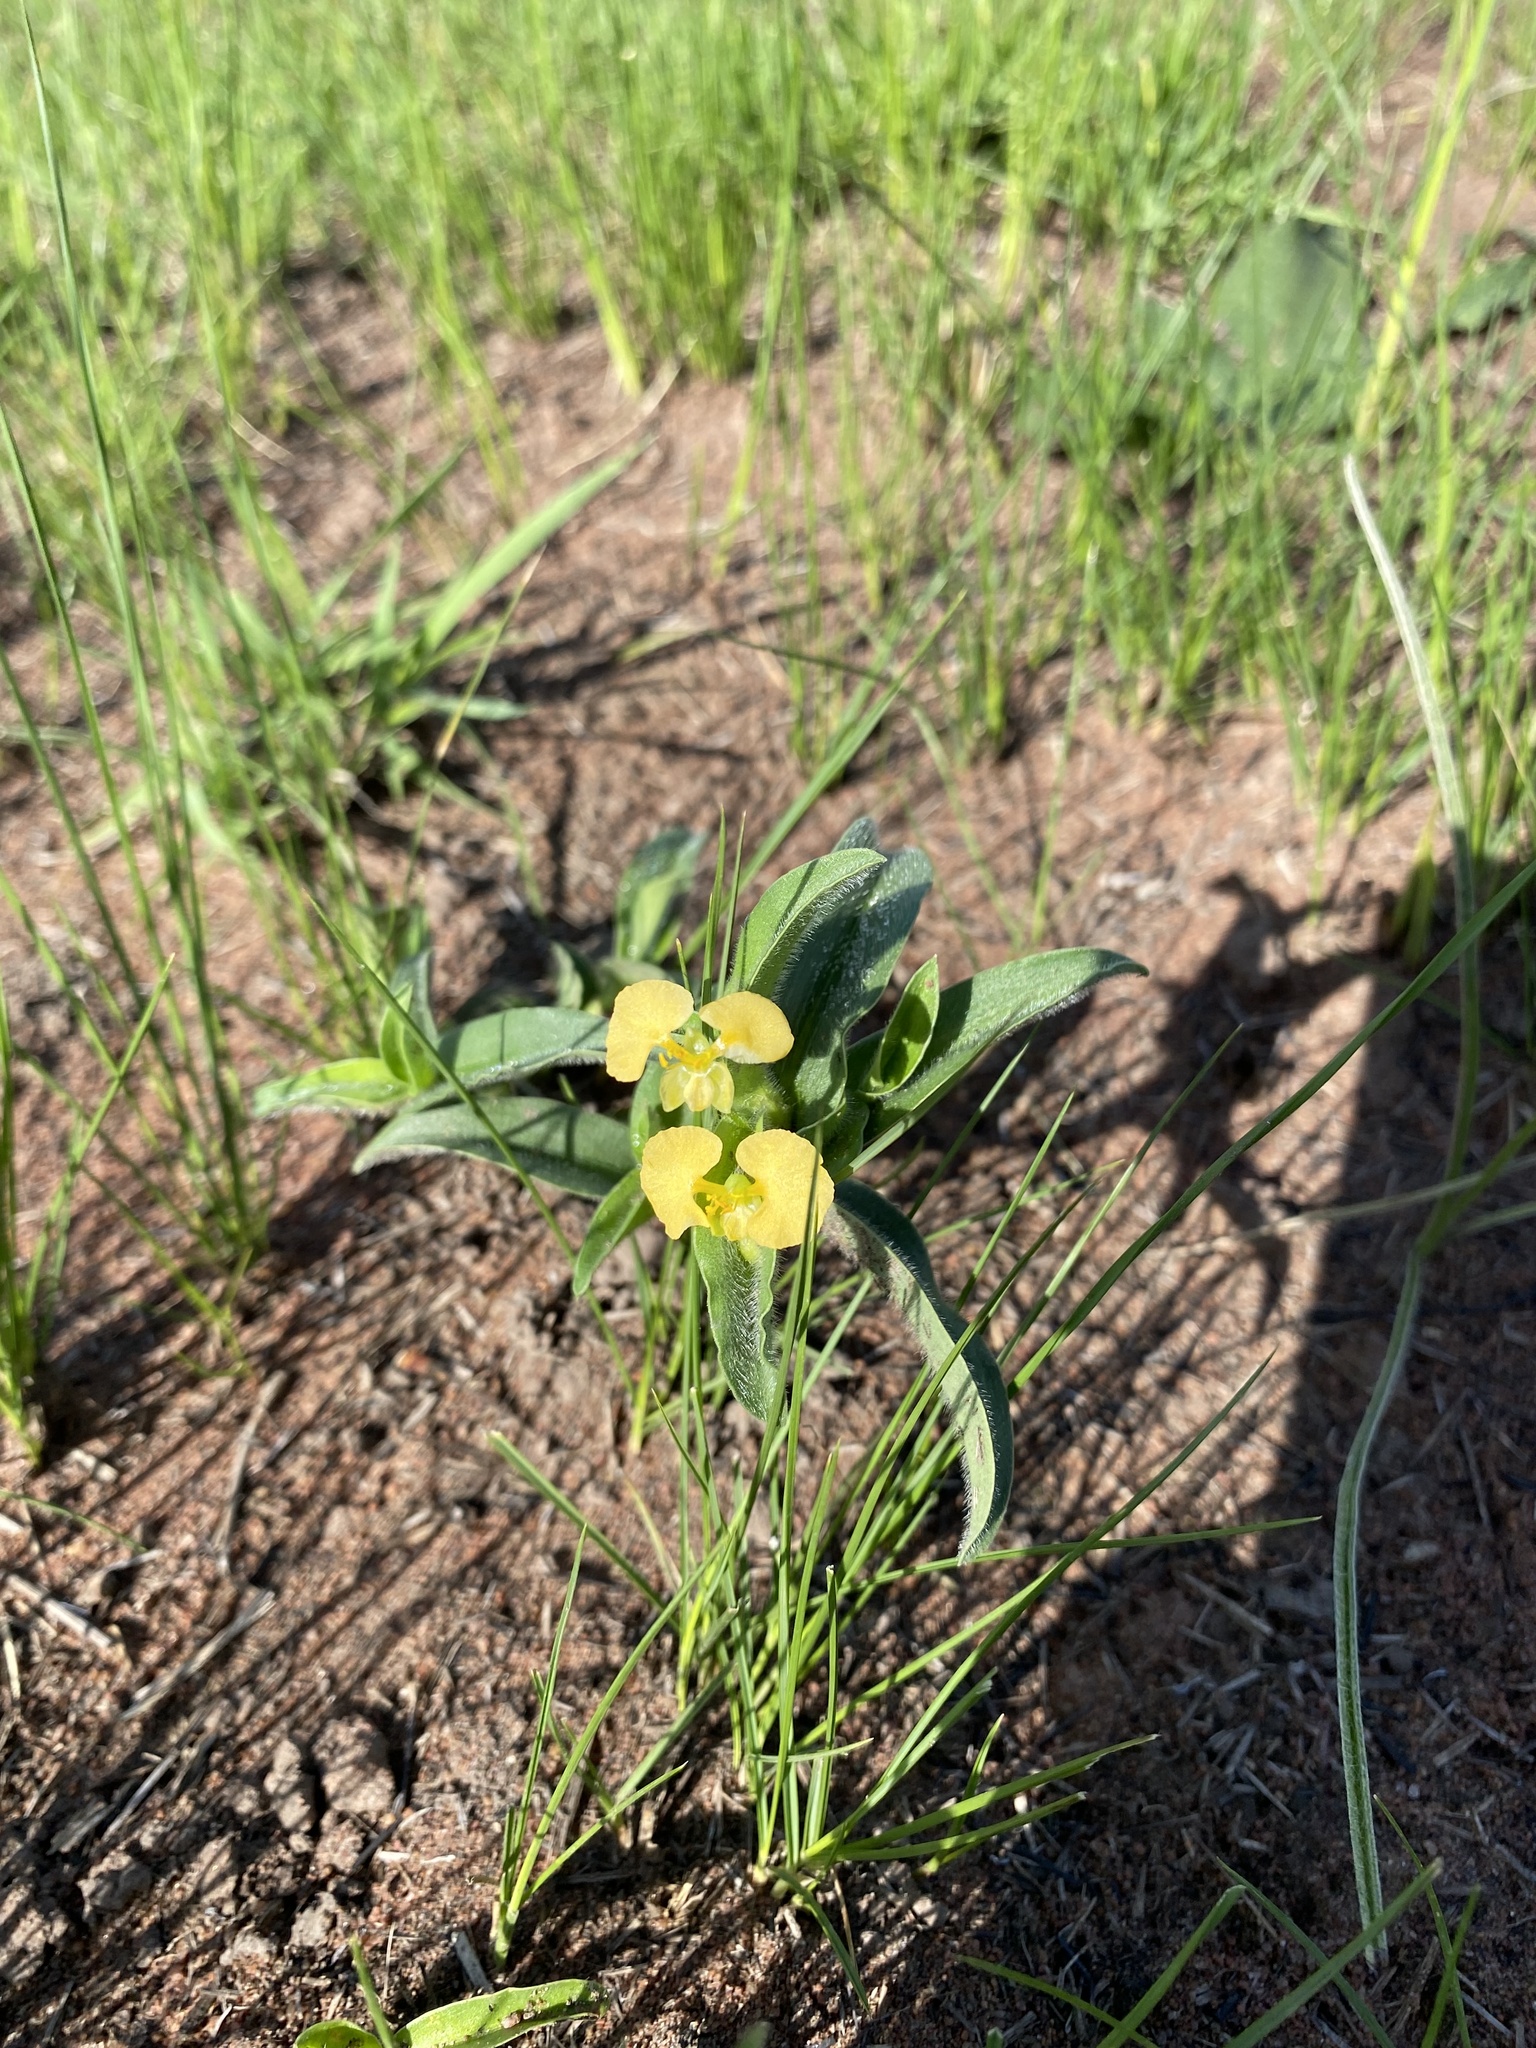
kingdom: Plantae
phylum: Tracheophyta
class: Liliopsida
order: Commelinales
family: Commelinaceae
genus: Commelina
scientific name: Commelina africana
